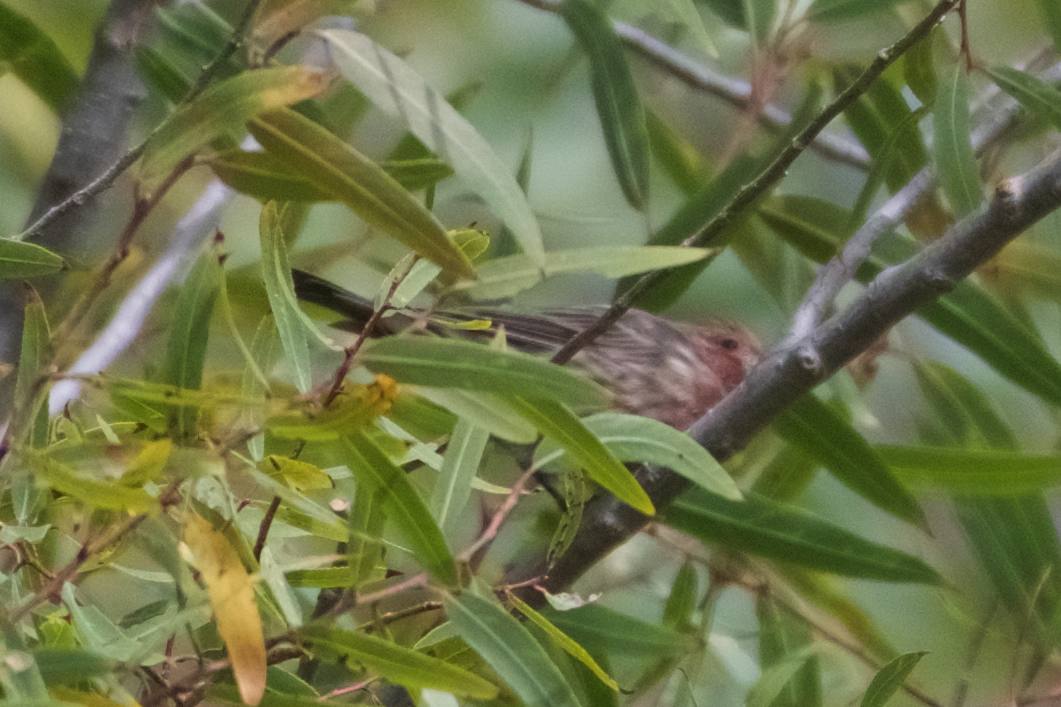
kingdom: Animalia
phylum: Chordata
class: Aves
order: Passeriformes
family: Fringillidae
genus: Haemorhous
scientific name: Haemorhous mexicanus
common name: House finch
